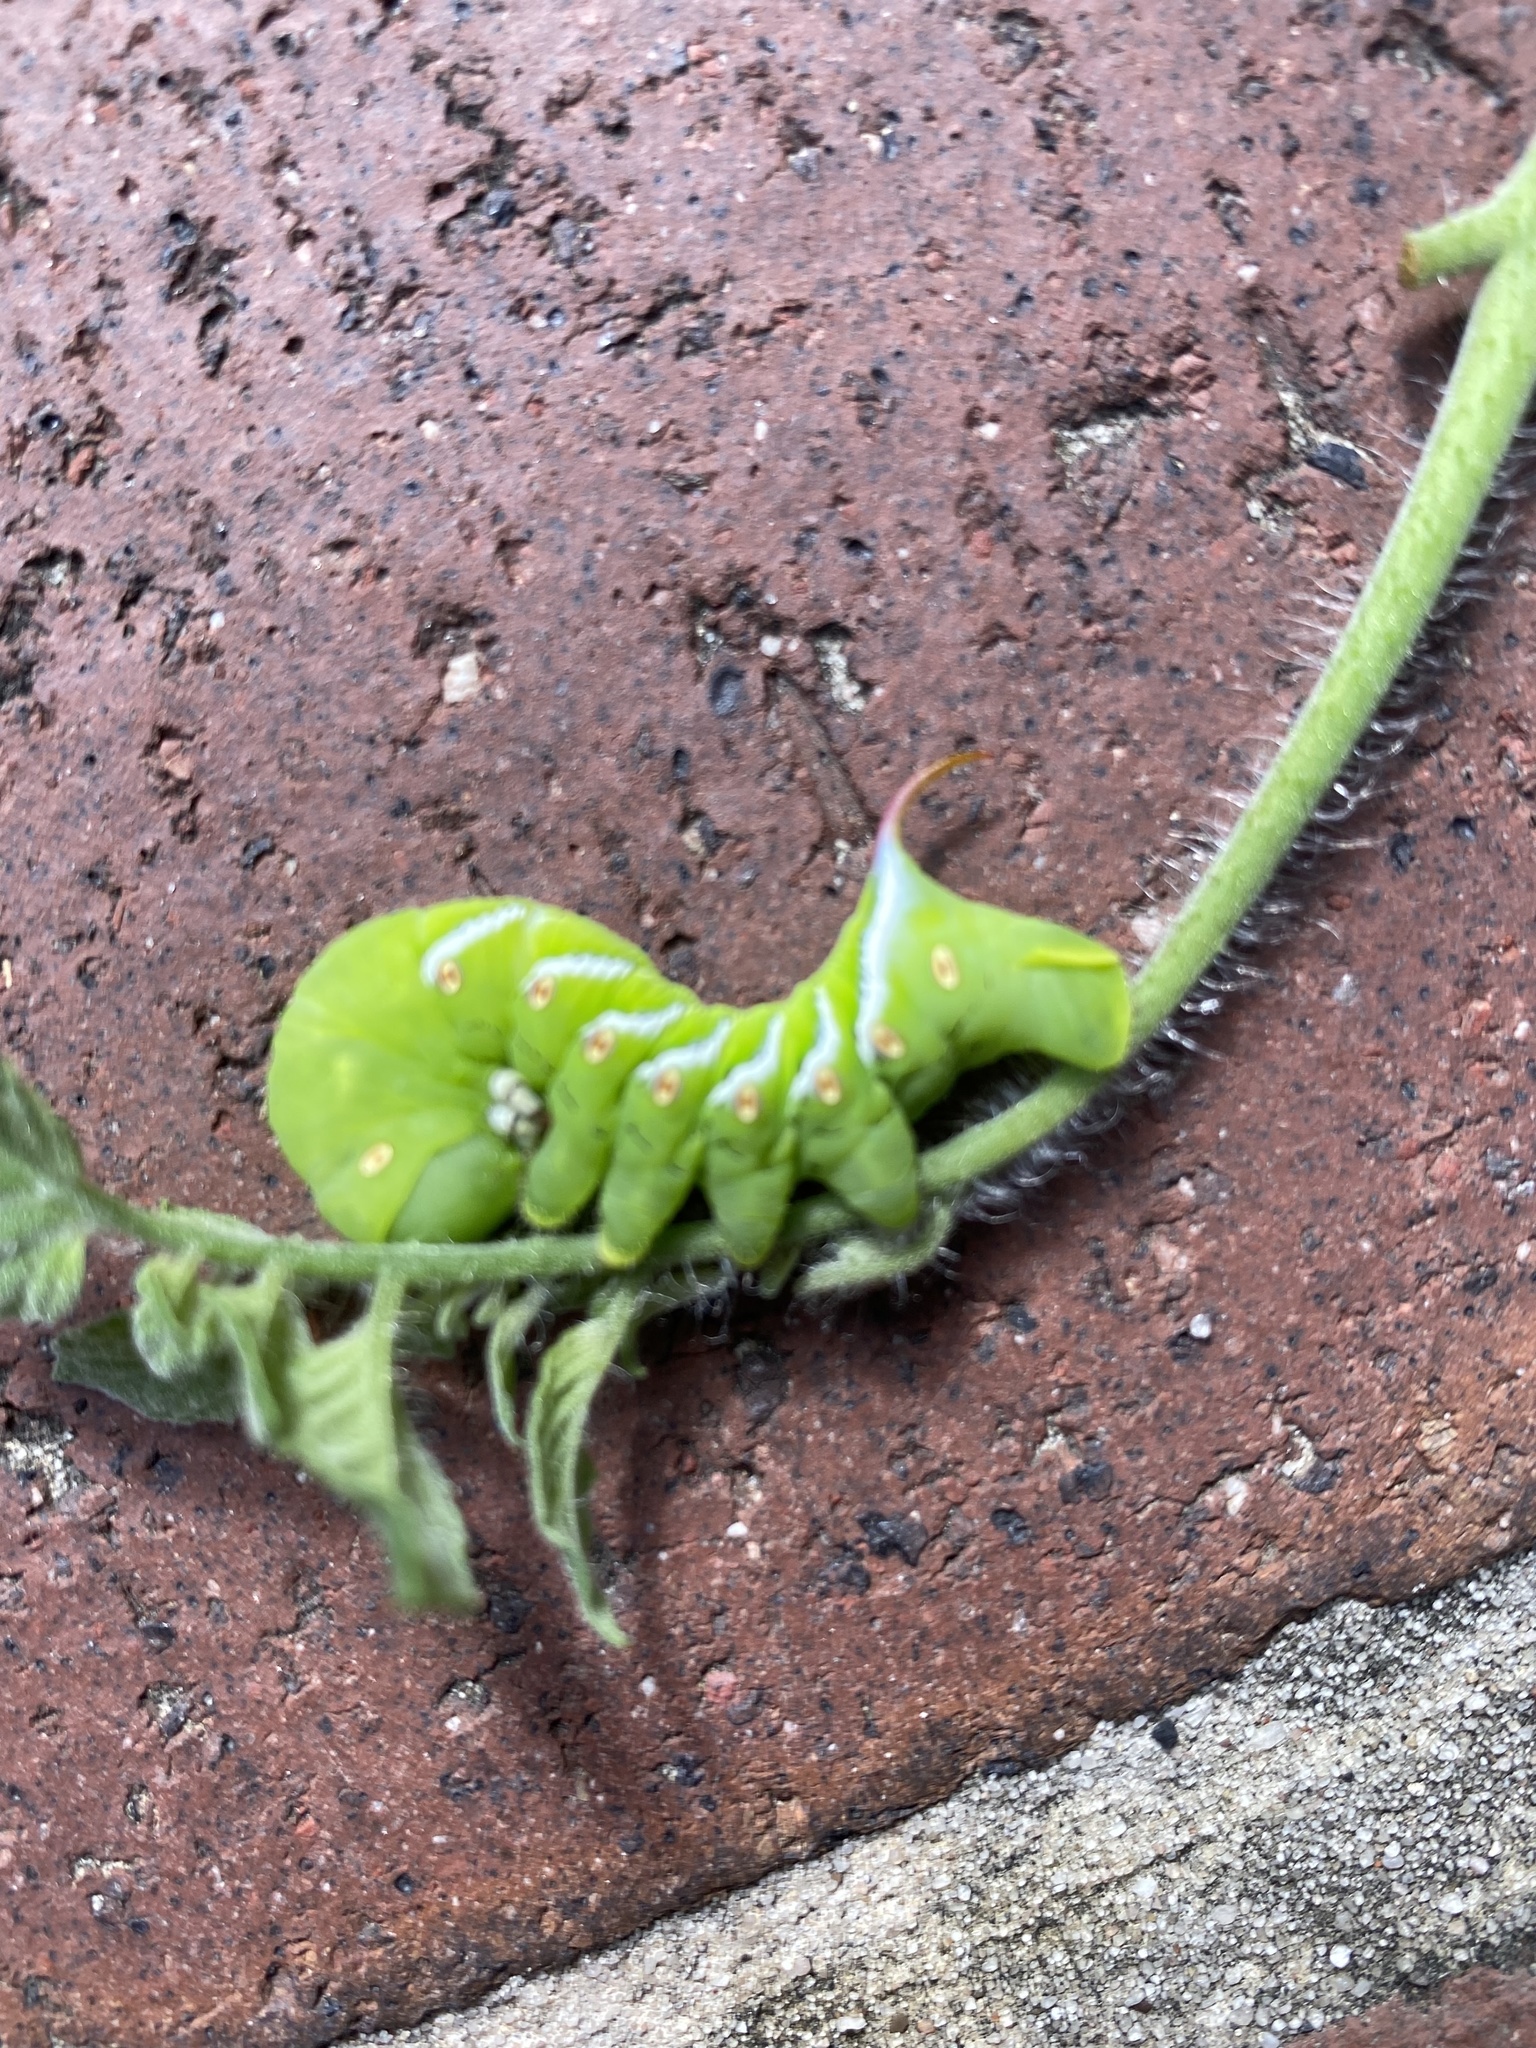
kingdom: Animalia
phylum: Arthropoda
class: Insecta
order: Lepidoptera
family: Sphingidae
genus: Manduca
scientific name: Manduca sexta
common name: Carolina sphinx
